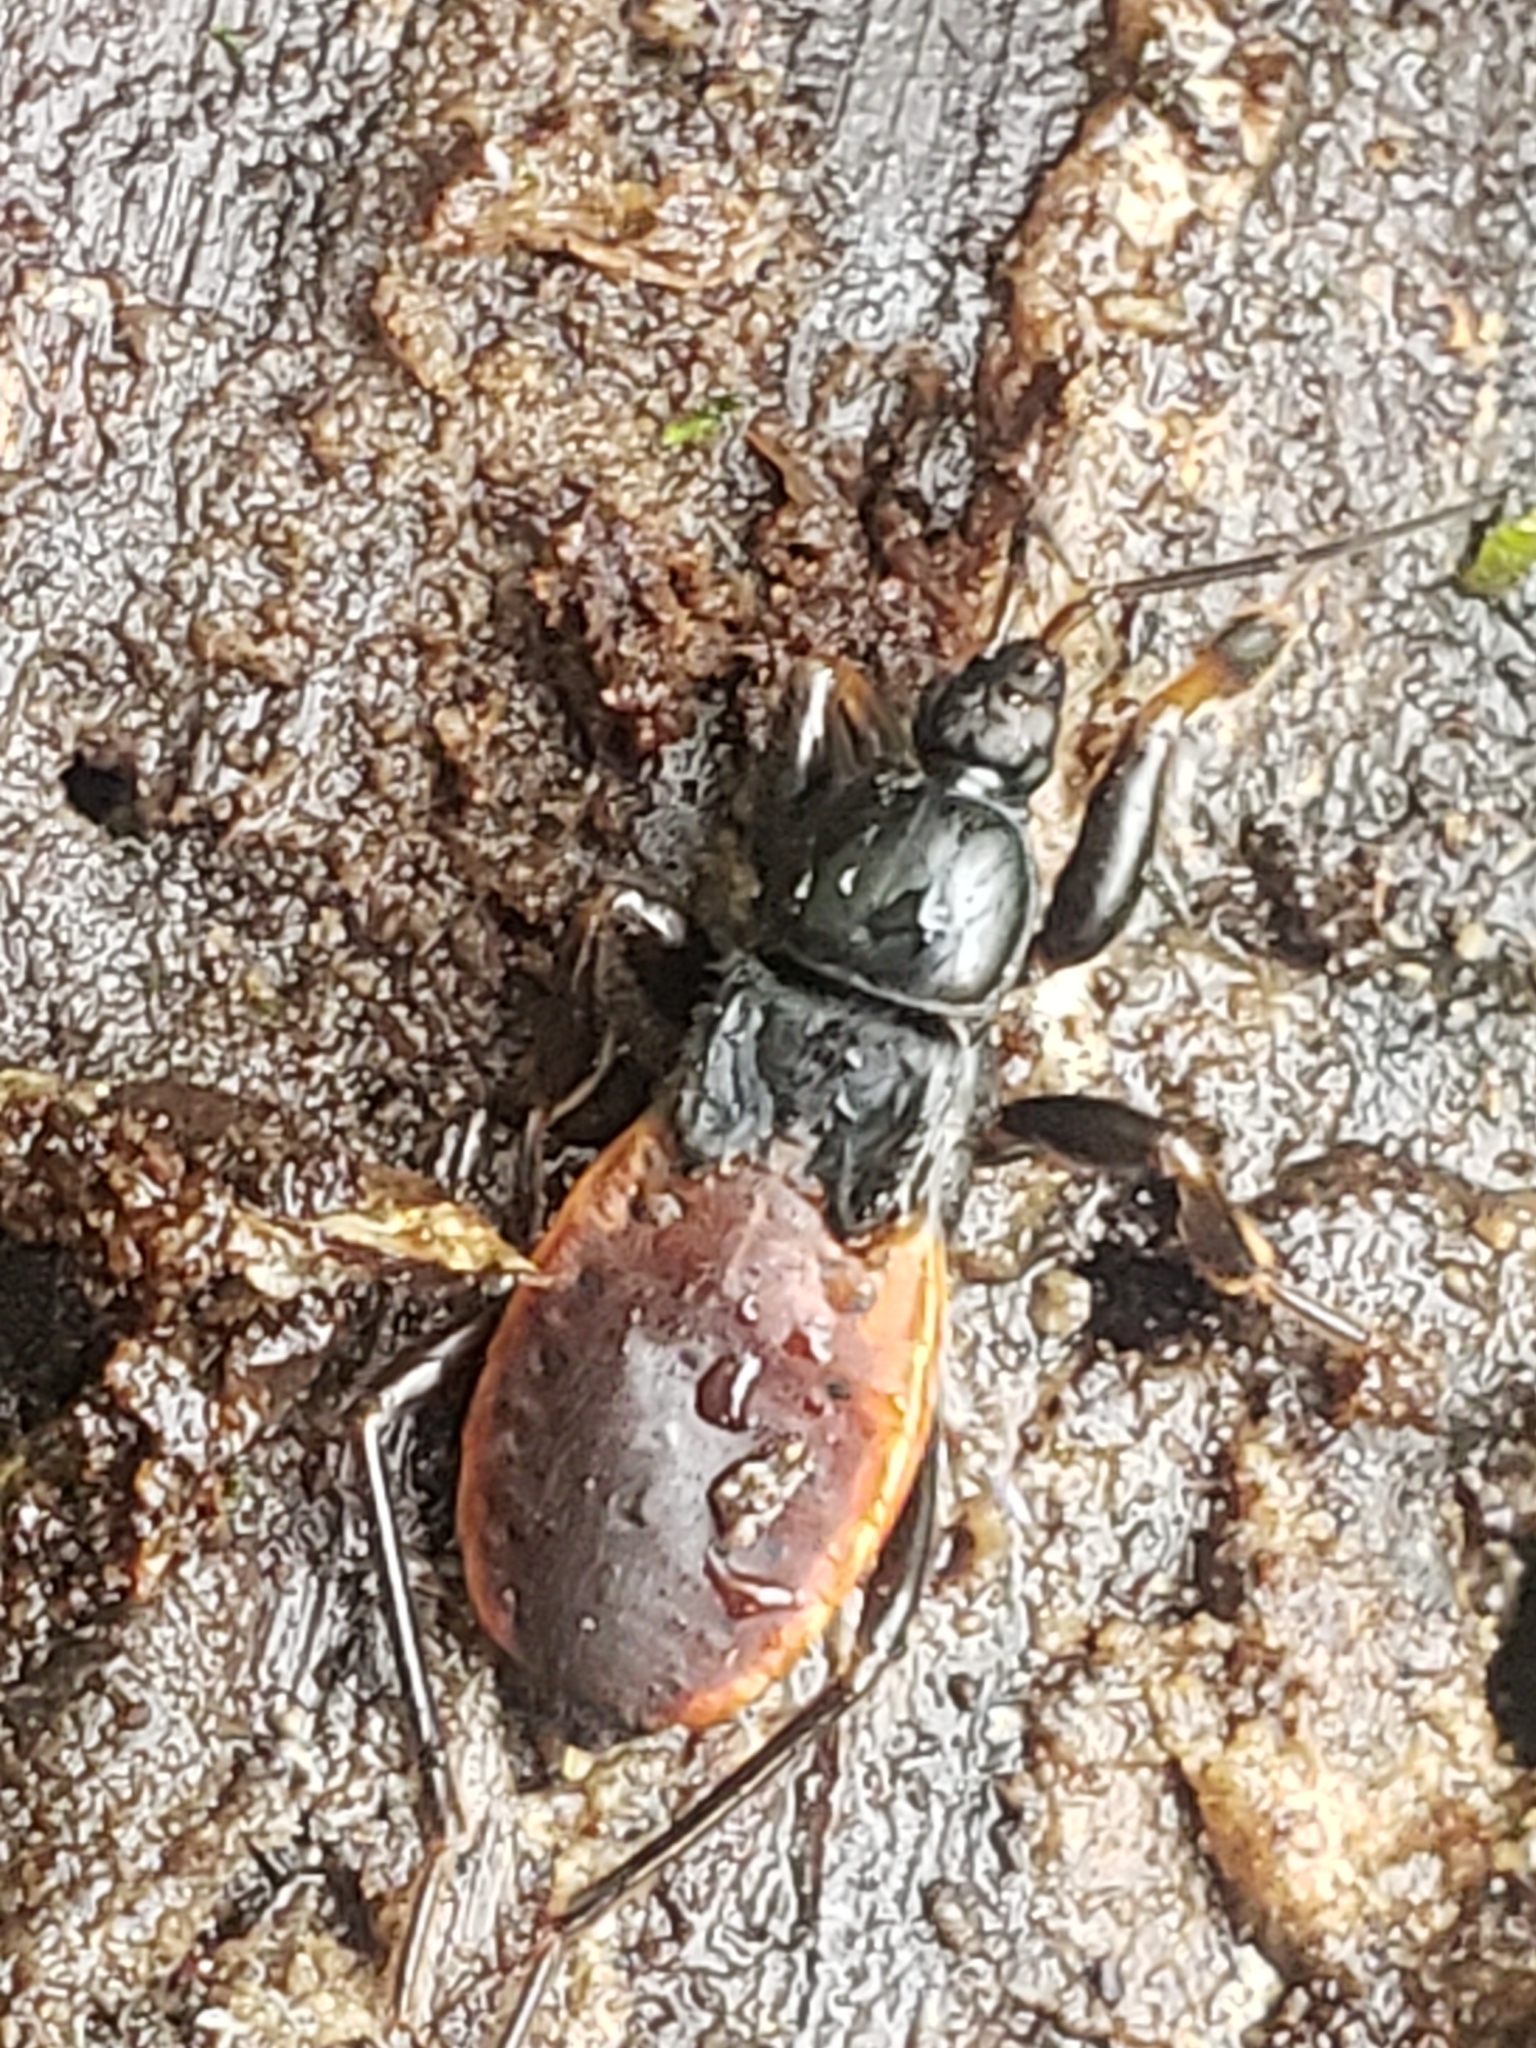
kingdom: Animalia
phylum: Arthropoda
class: Insecta
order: Hemiptera
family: Reduviidae
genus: Melanolestes
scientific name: Melanolestes picipes
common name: Assassin bug
